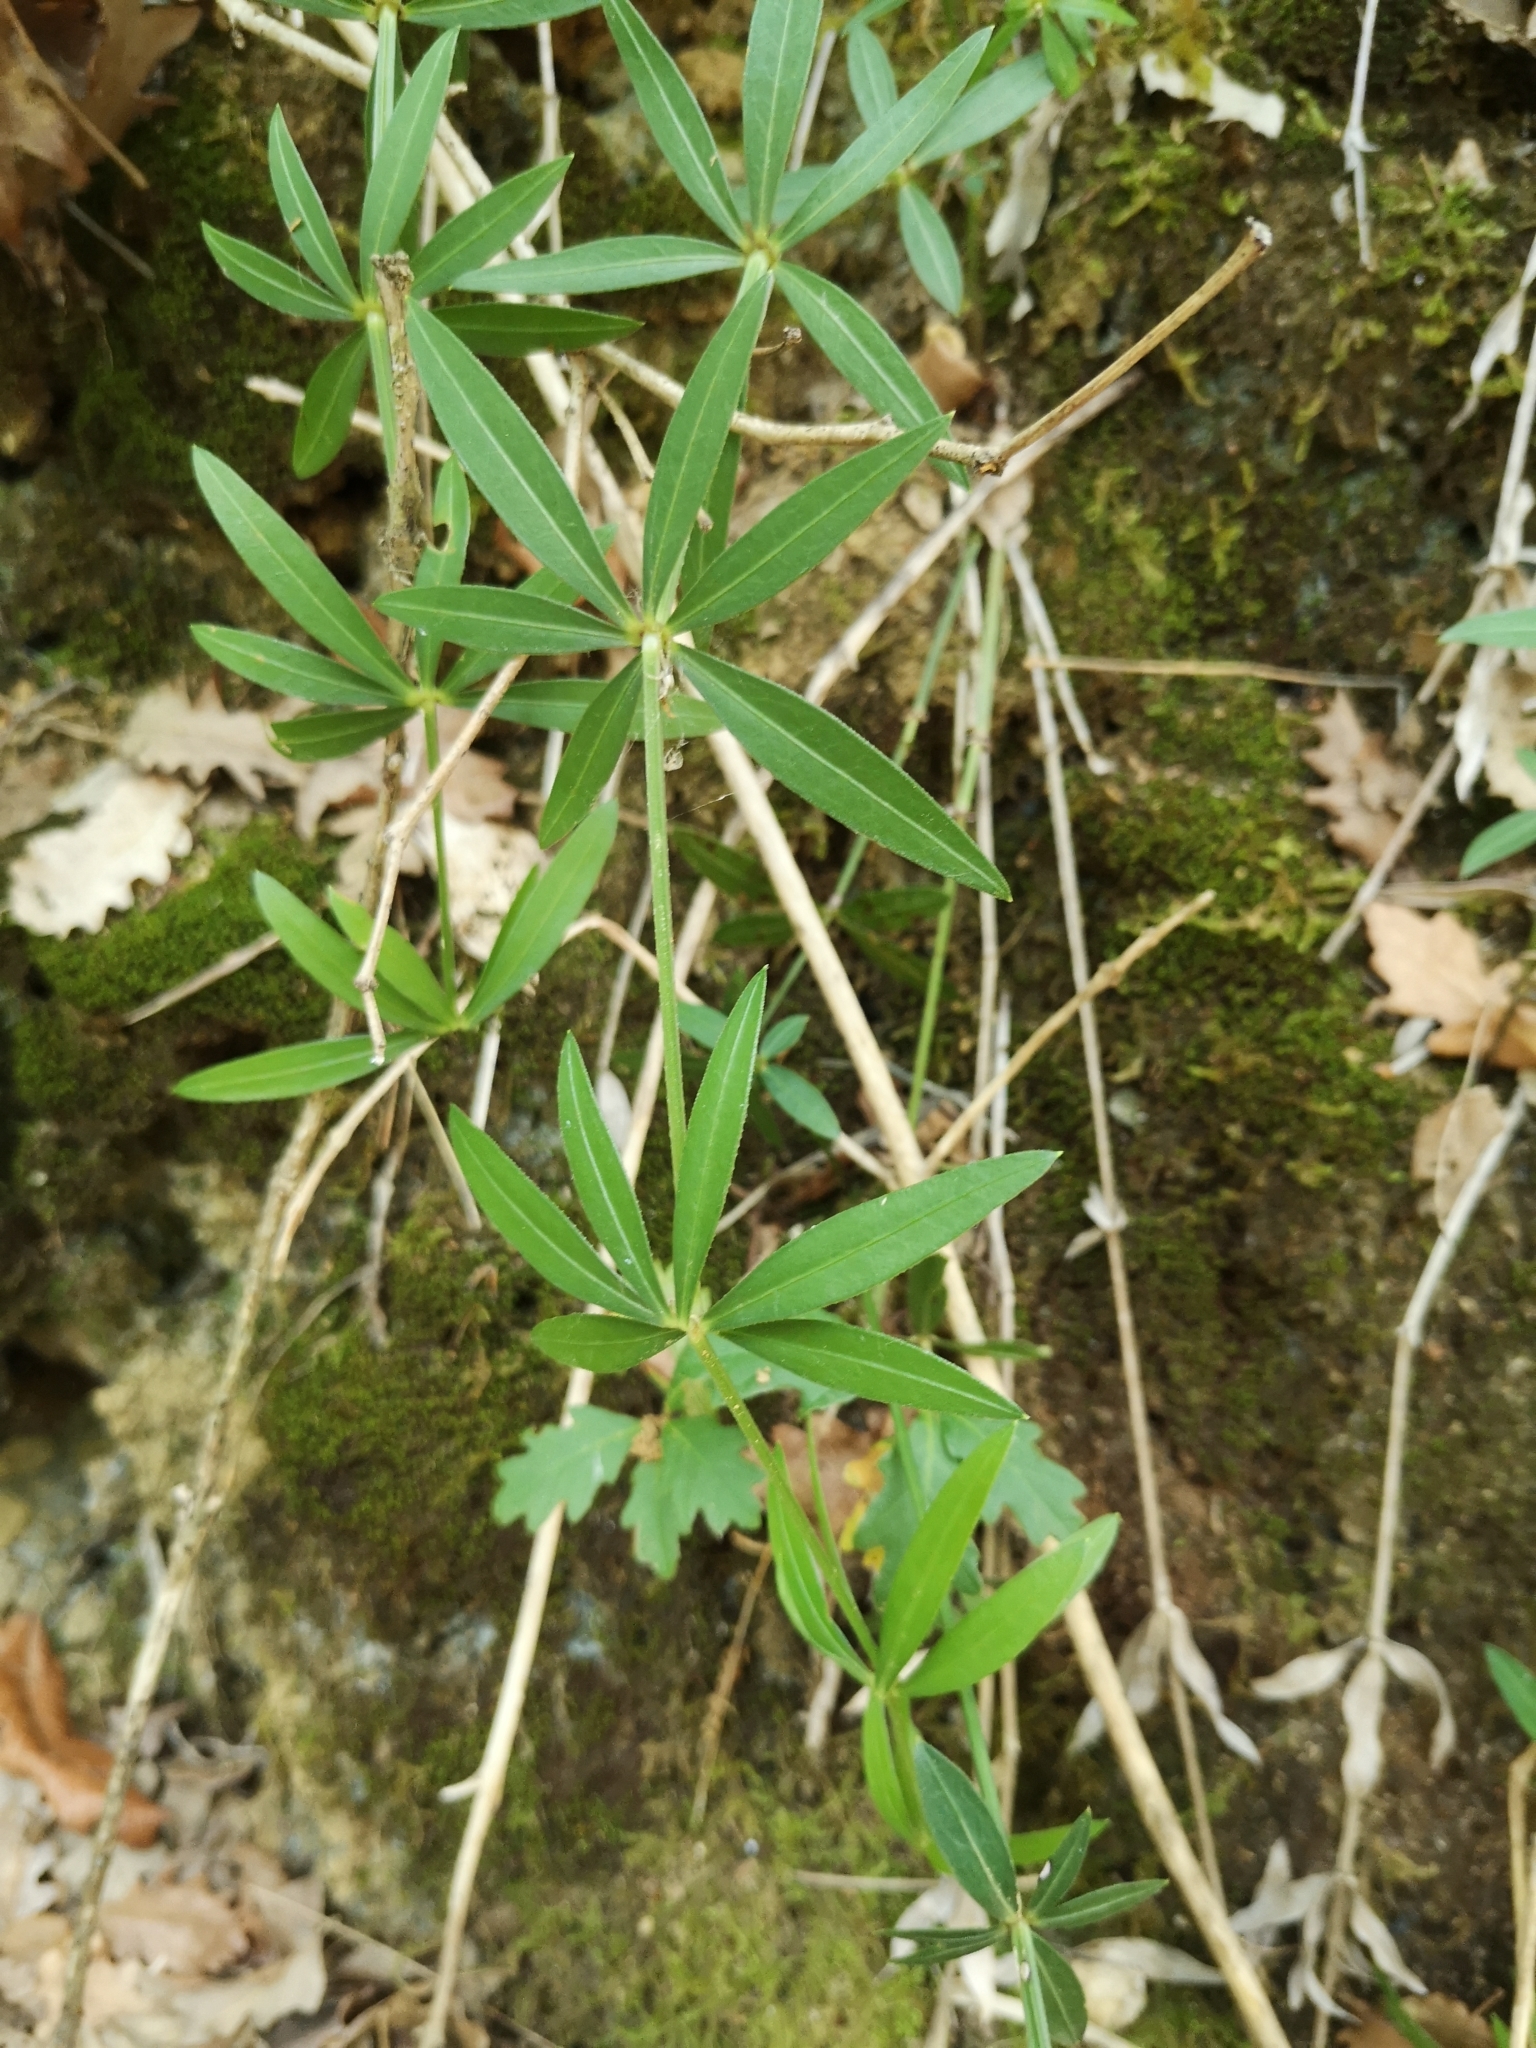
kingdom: Plantae
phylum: Tracheophyta
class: Magnoliopsida
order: Gentianales
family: Rubiaceae
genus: Rubia
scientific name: Rubia peregrina
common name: Wild madder
